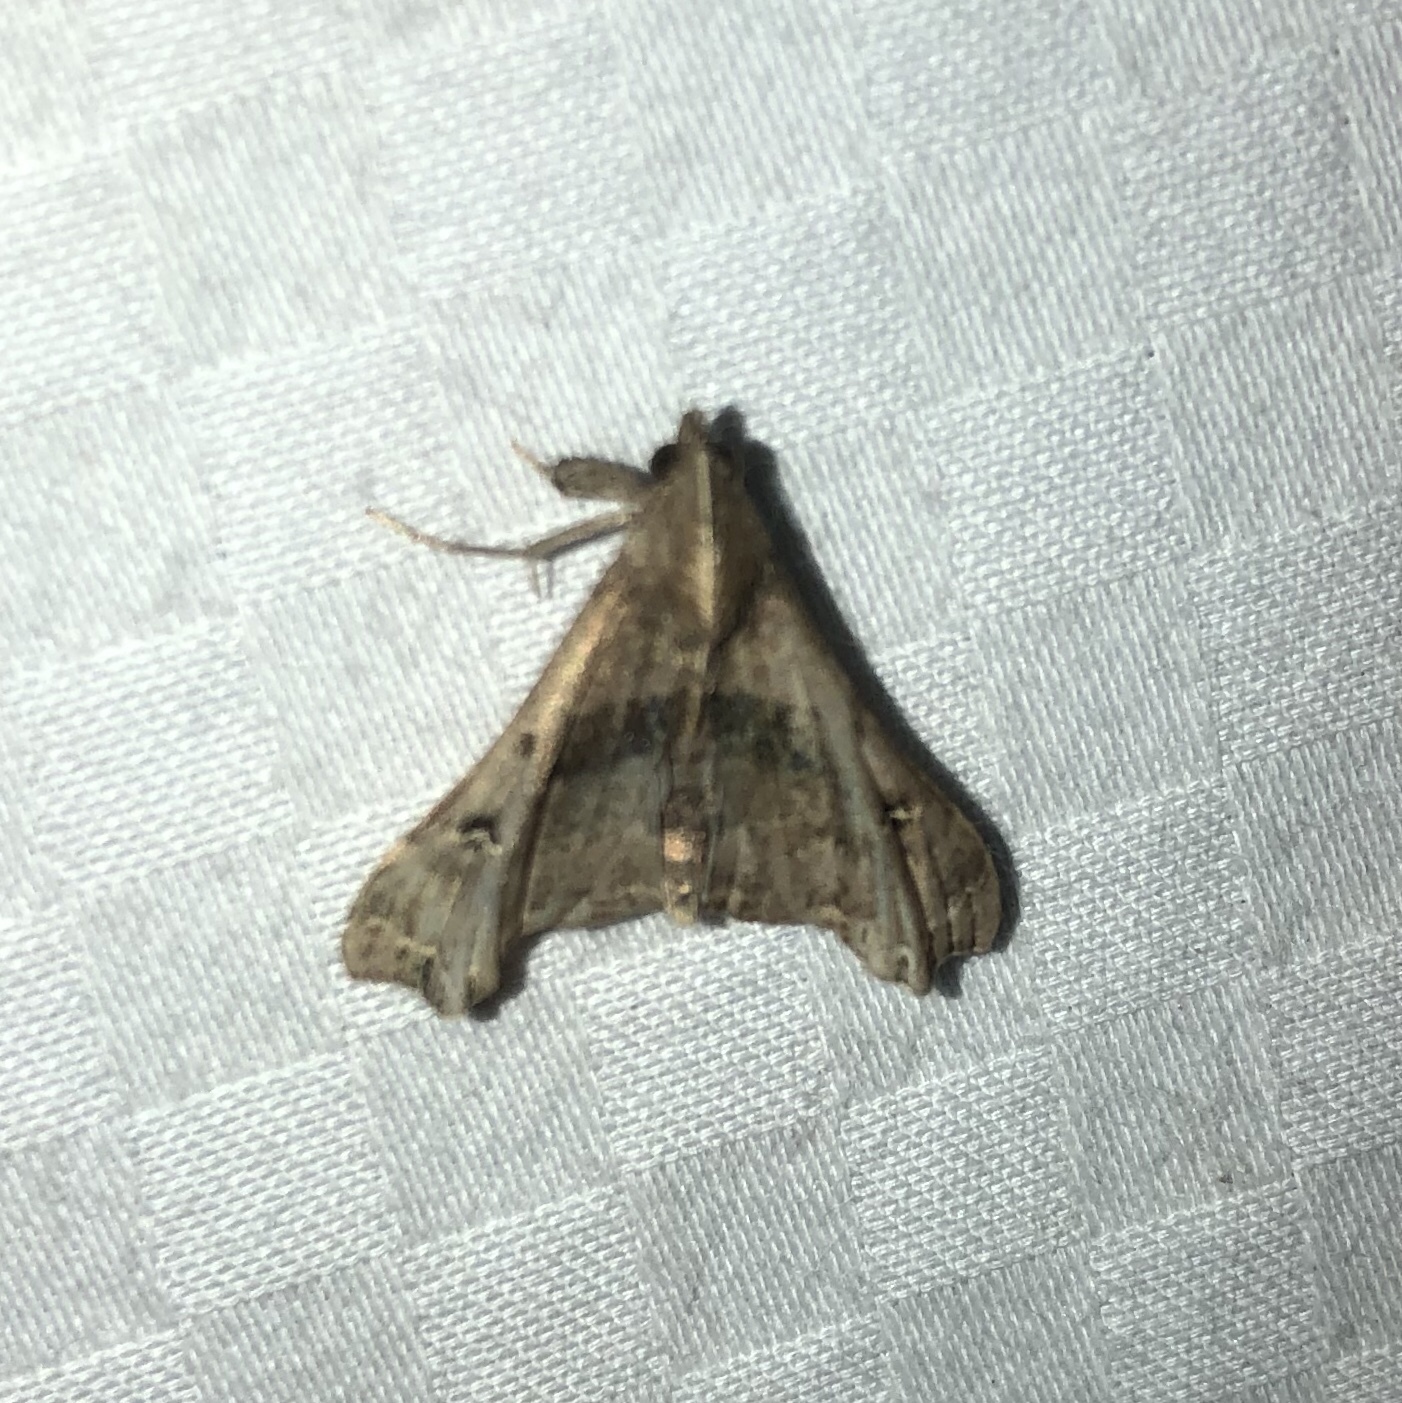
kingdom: Animalia
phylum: Arthropoda
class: Insecta
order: Lepidoptera
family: Erebidae
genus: Palthis
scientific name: Palthis asopialis
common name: Faint-spotted palthis moth
